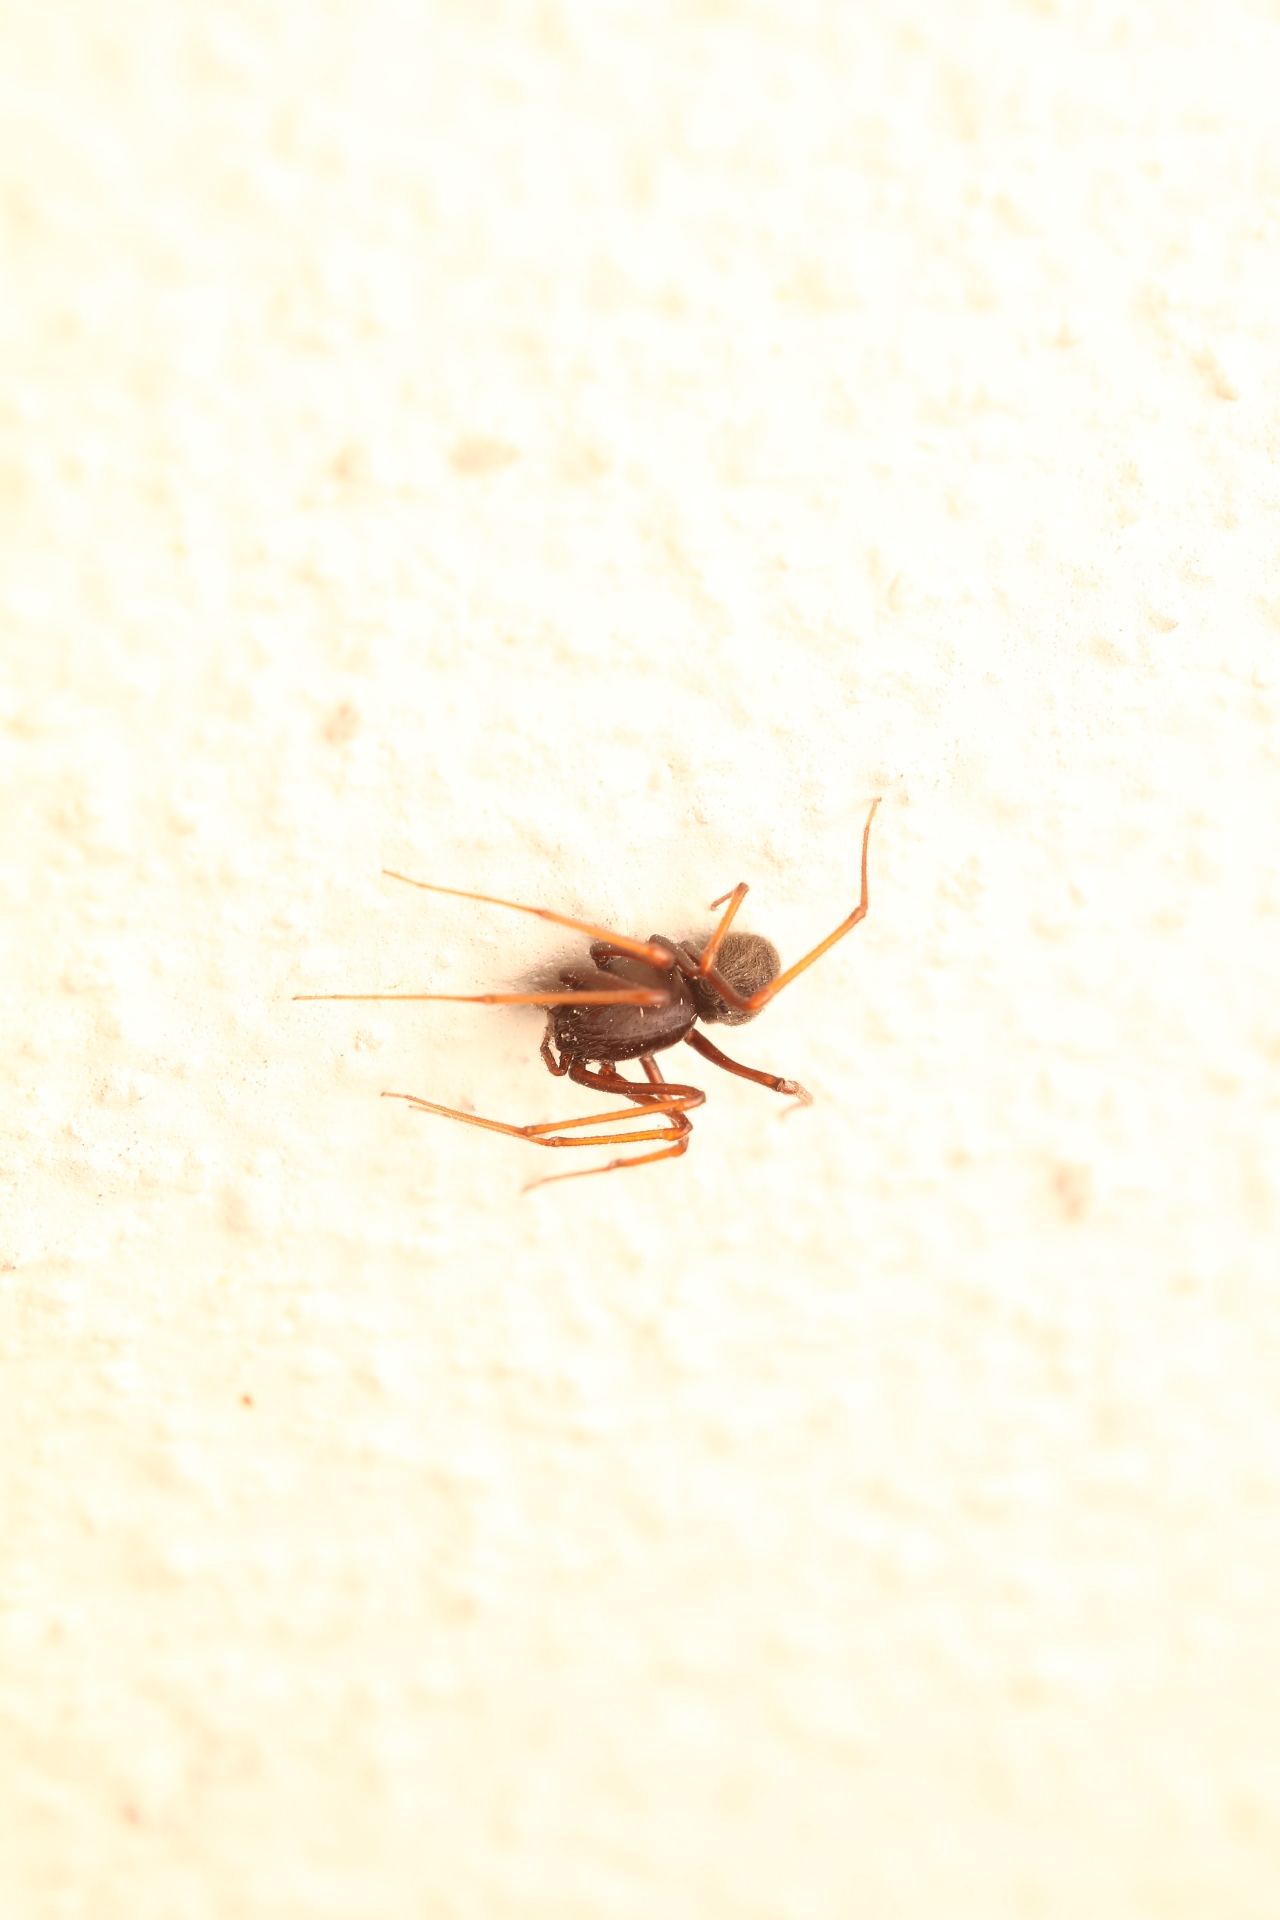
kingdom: Animalia
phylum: Arthropoda
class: Arachnida
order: Araneae
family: Scytodidae
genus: Scytodes
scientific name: Scytodes fusca
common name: Spitting spiders
